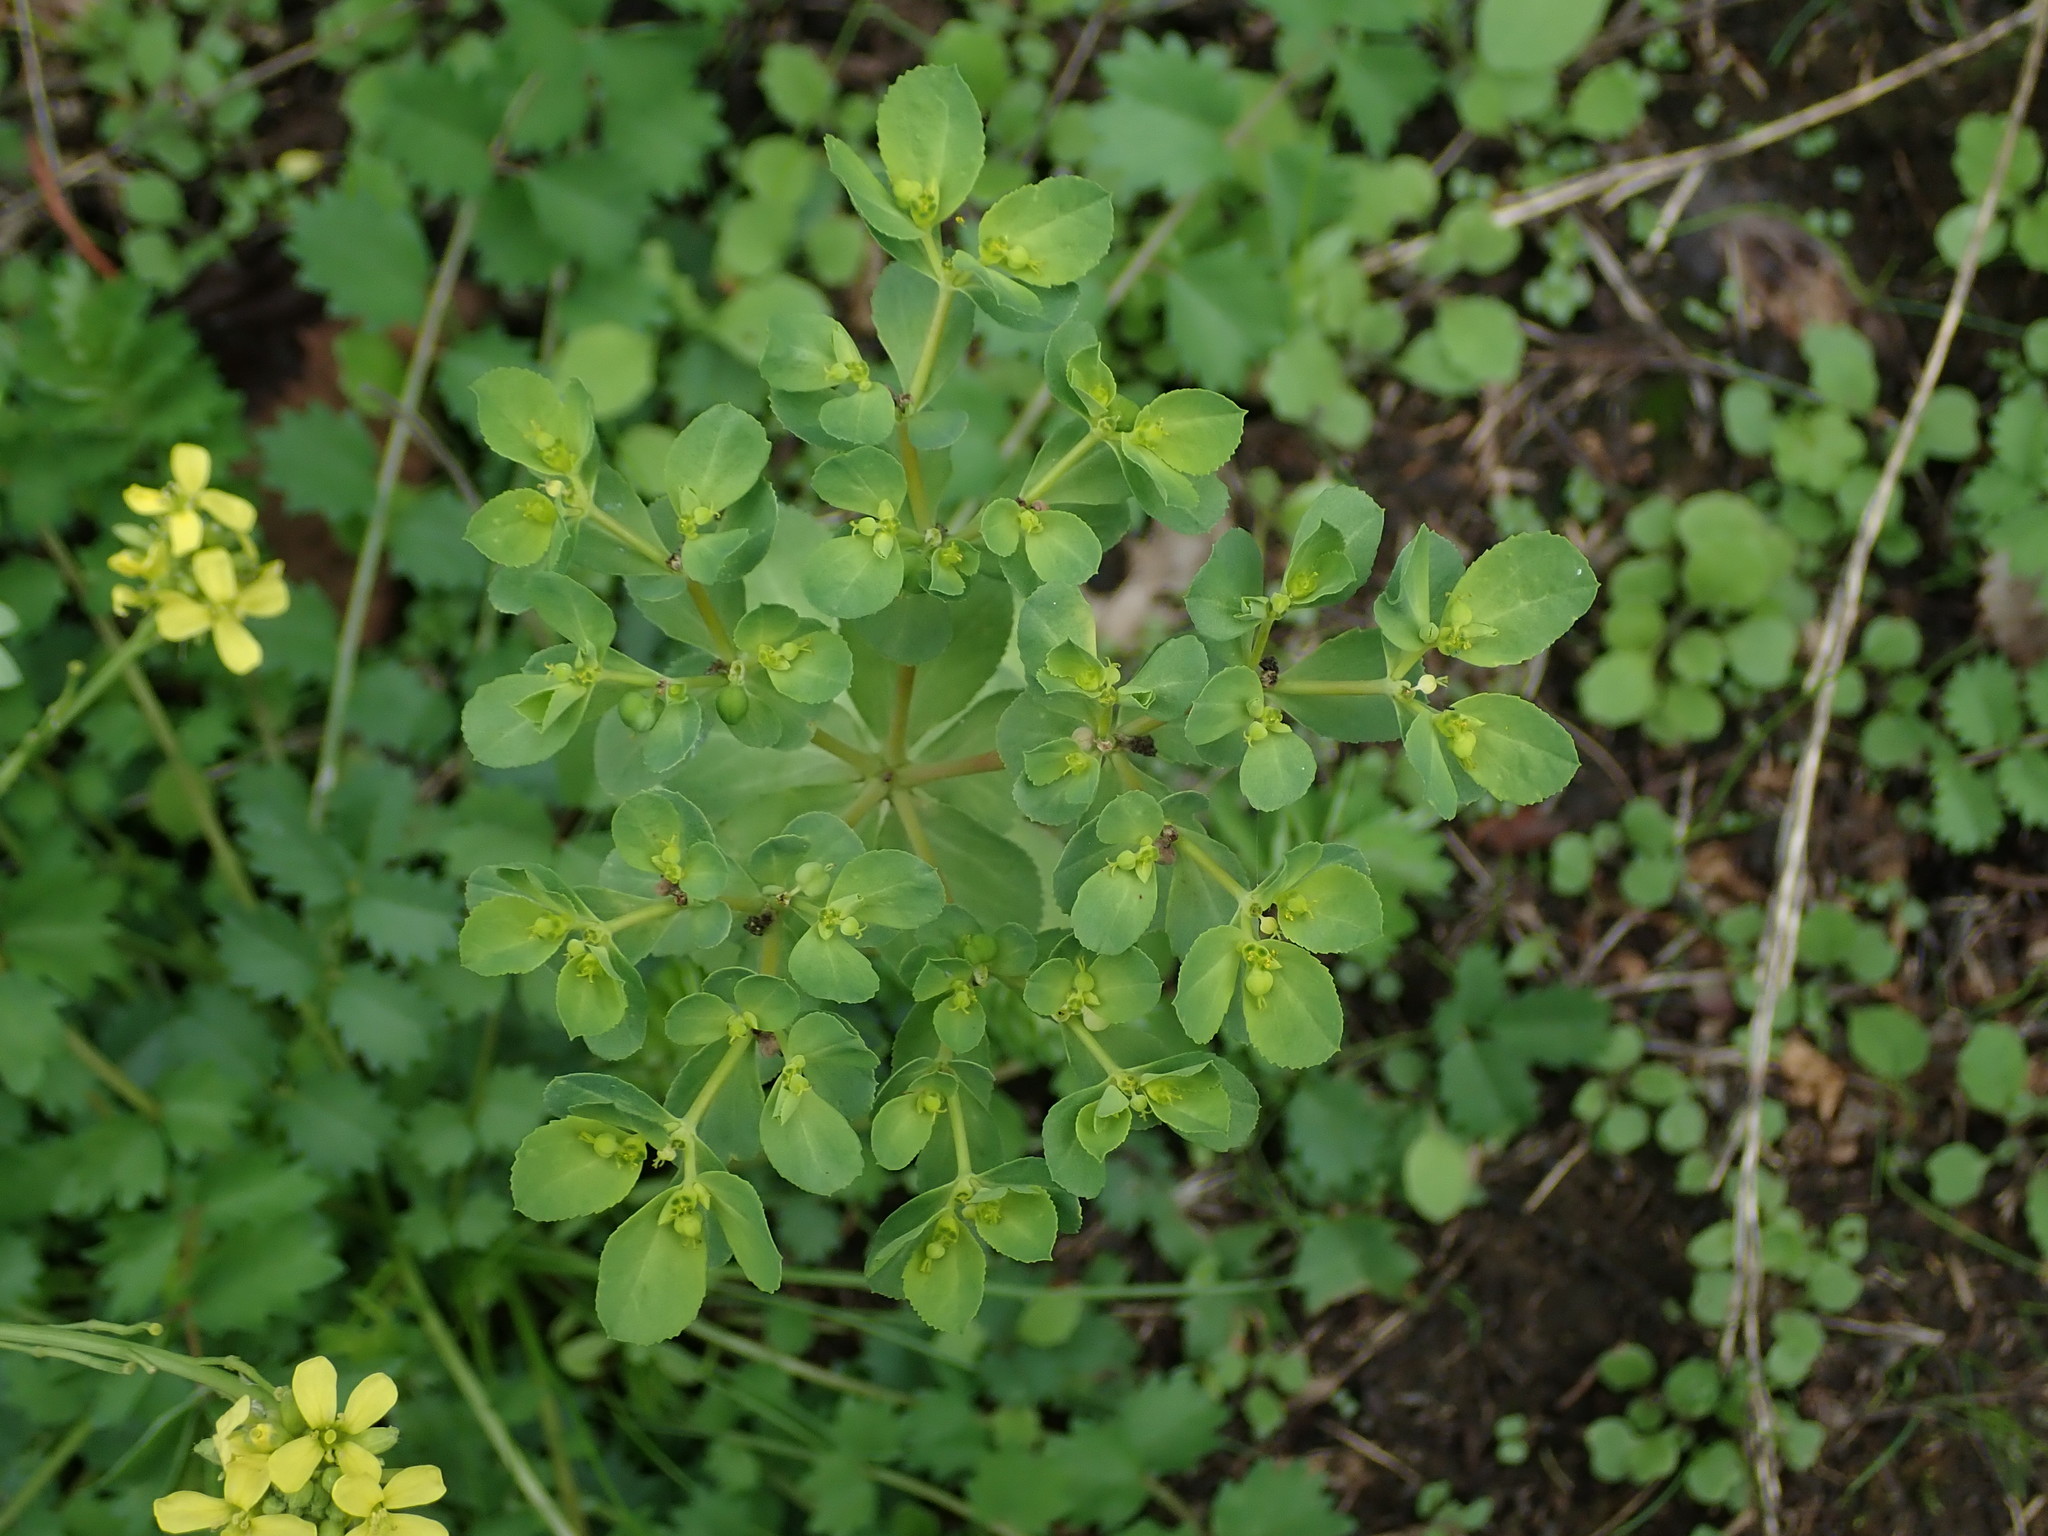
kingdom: Plantae
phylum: Tracheophyta
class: Magnoliopsida
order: Malpighiales
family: Euphorbiaceae
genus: Euphorbia
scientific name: Euphorbia helioscopia
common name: Sun spurge
